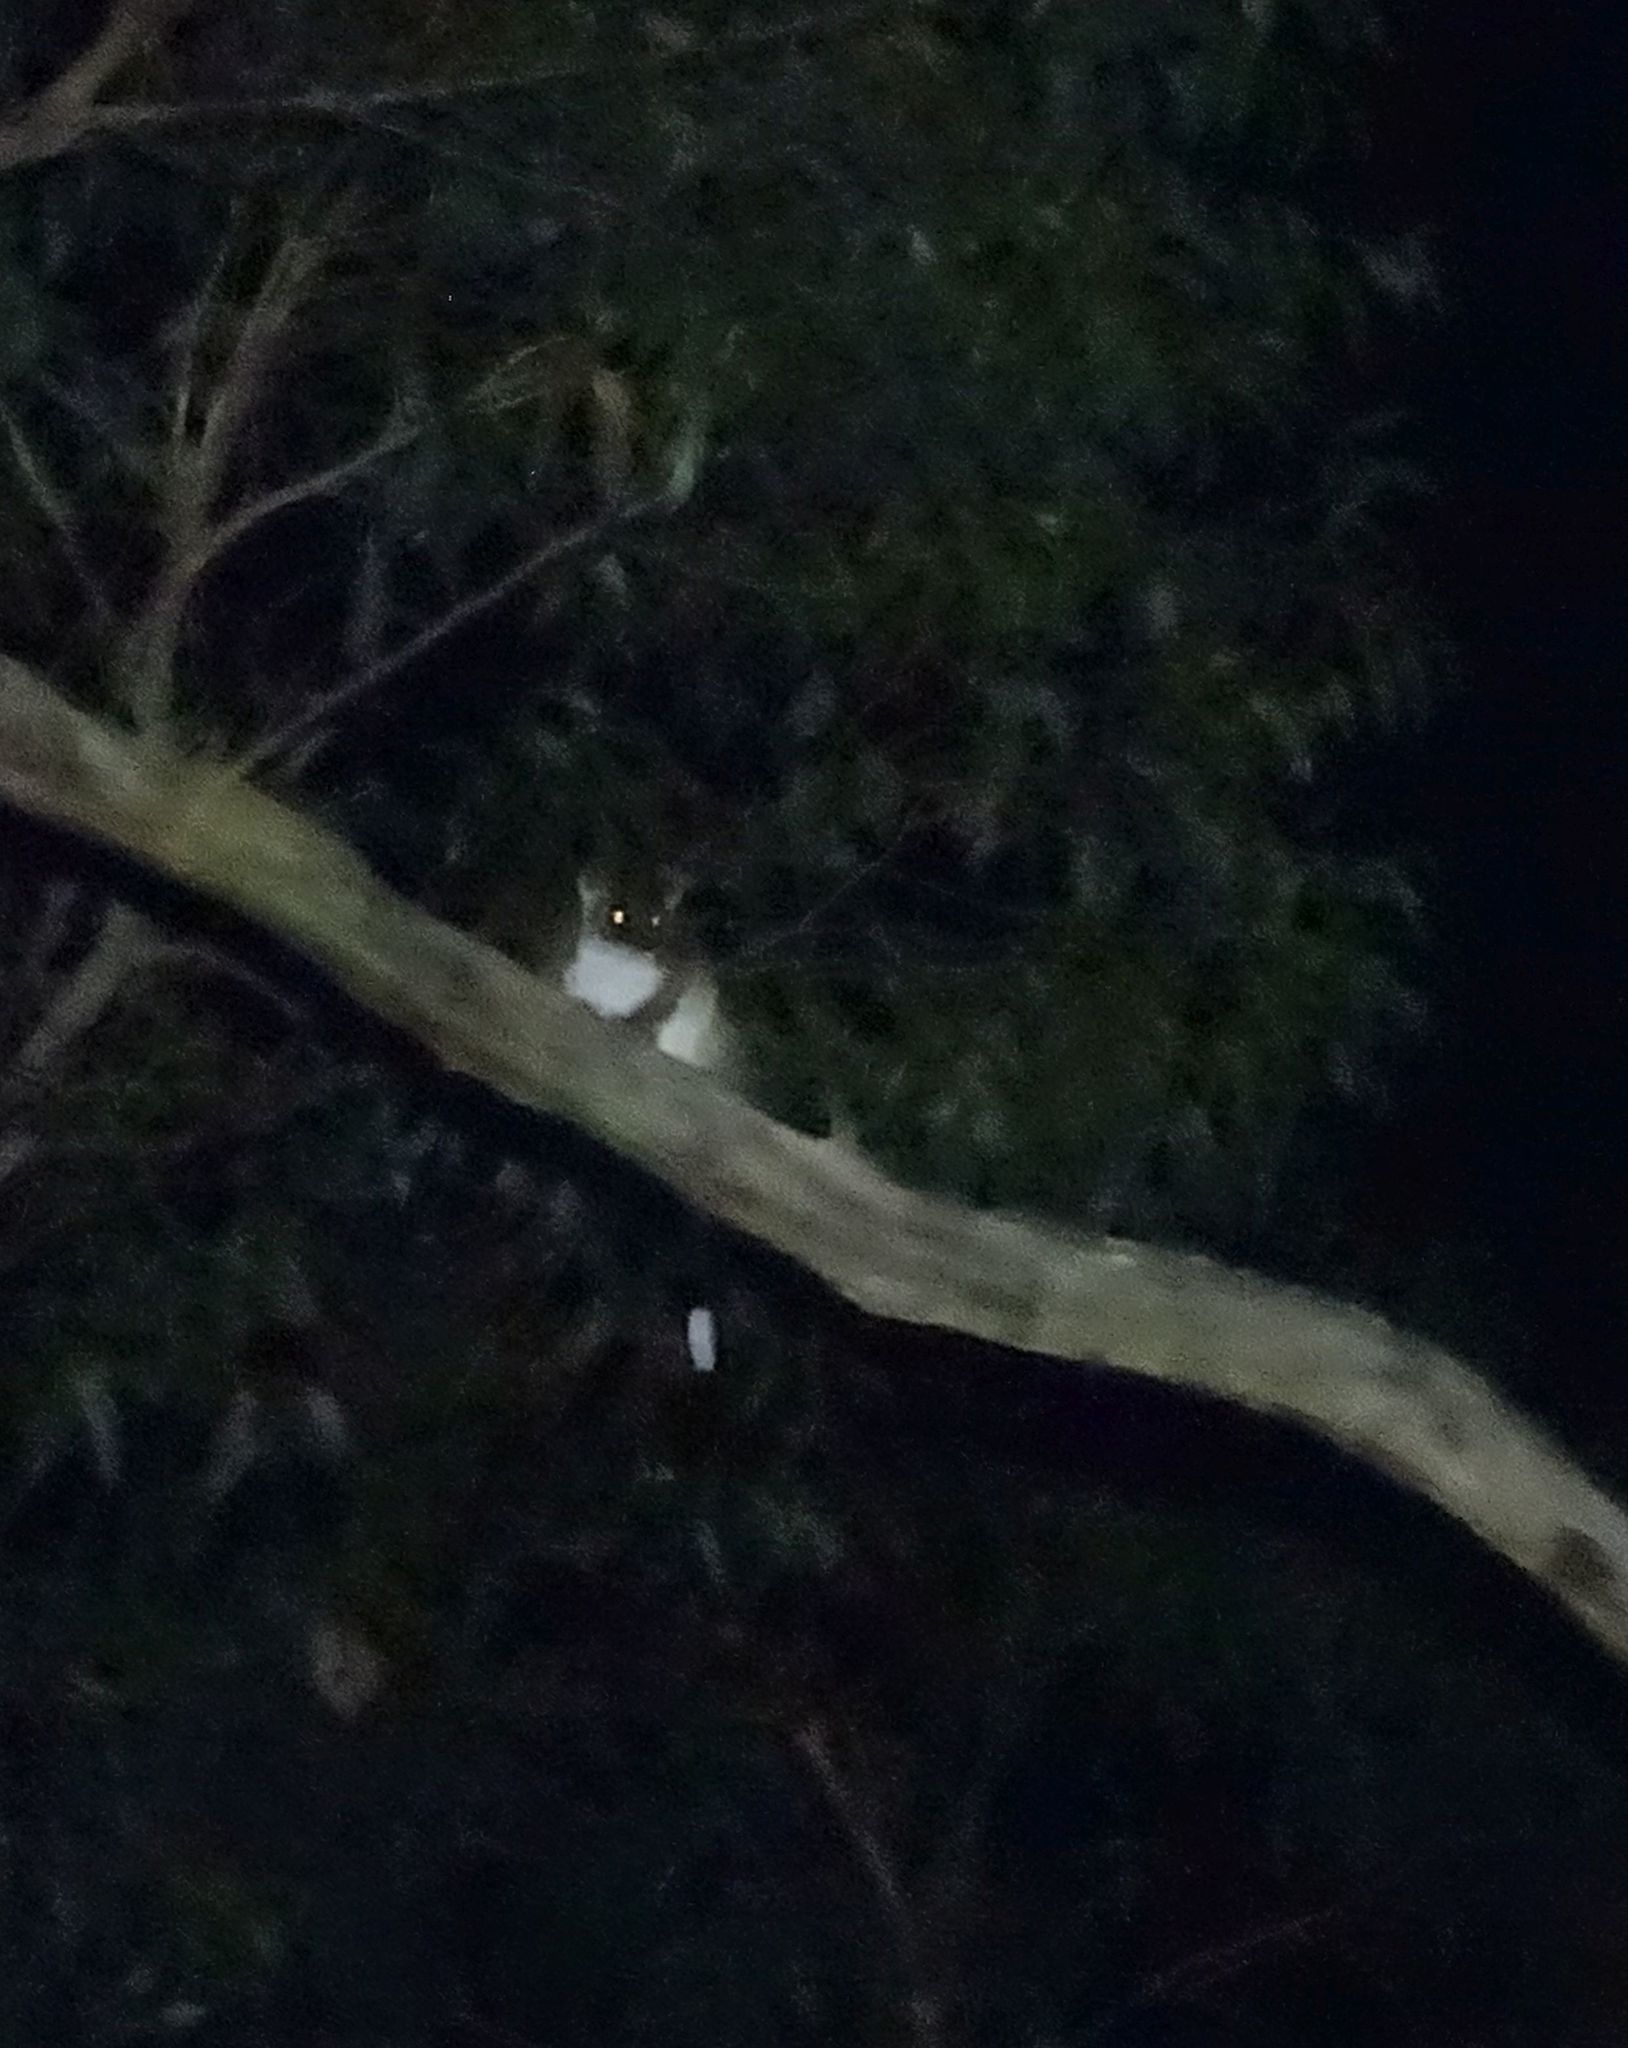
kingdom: Animalia
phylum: Chordata
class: Mammalia
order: Diprotodontia
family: Pseudocheiridae
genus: Pseudocheirus
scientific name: Pseudocheirus peregrinus
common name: Common ringtail possum
